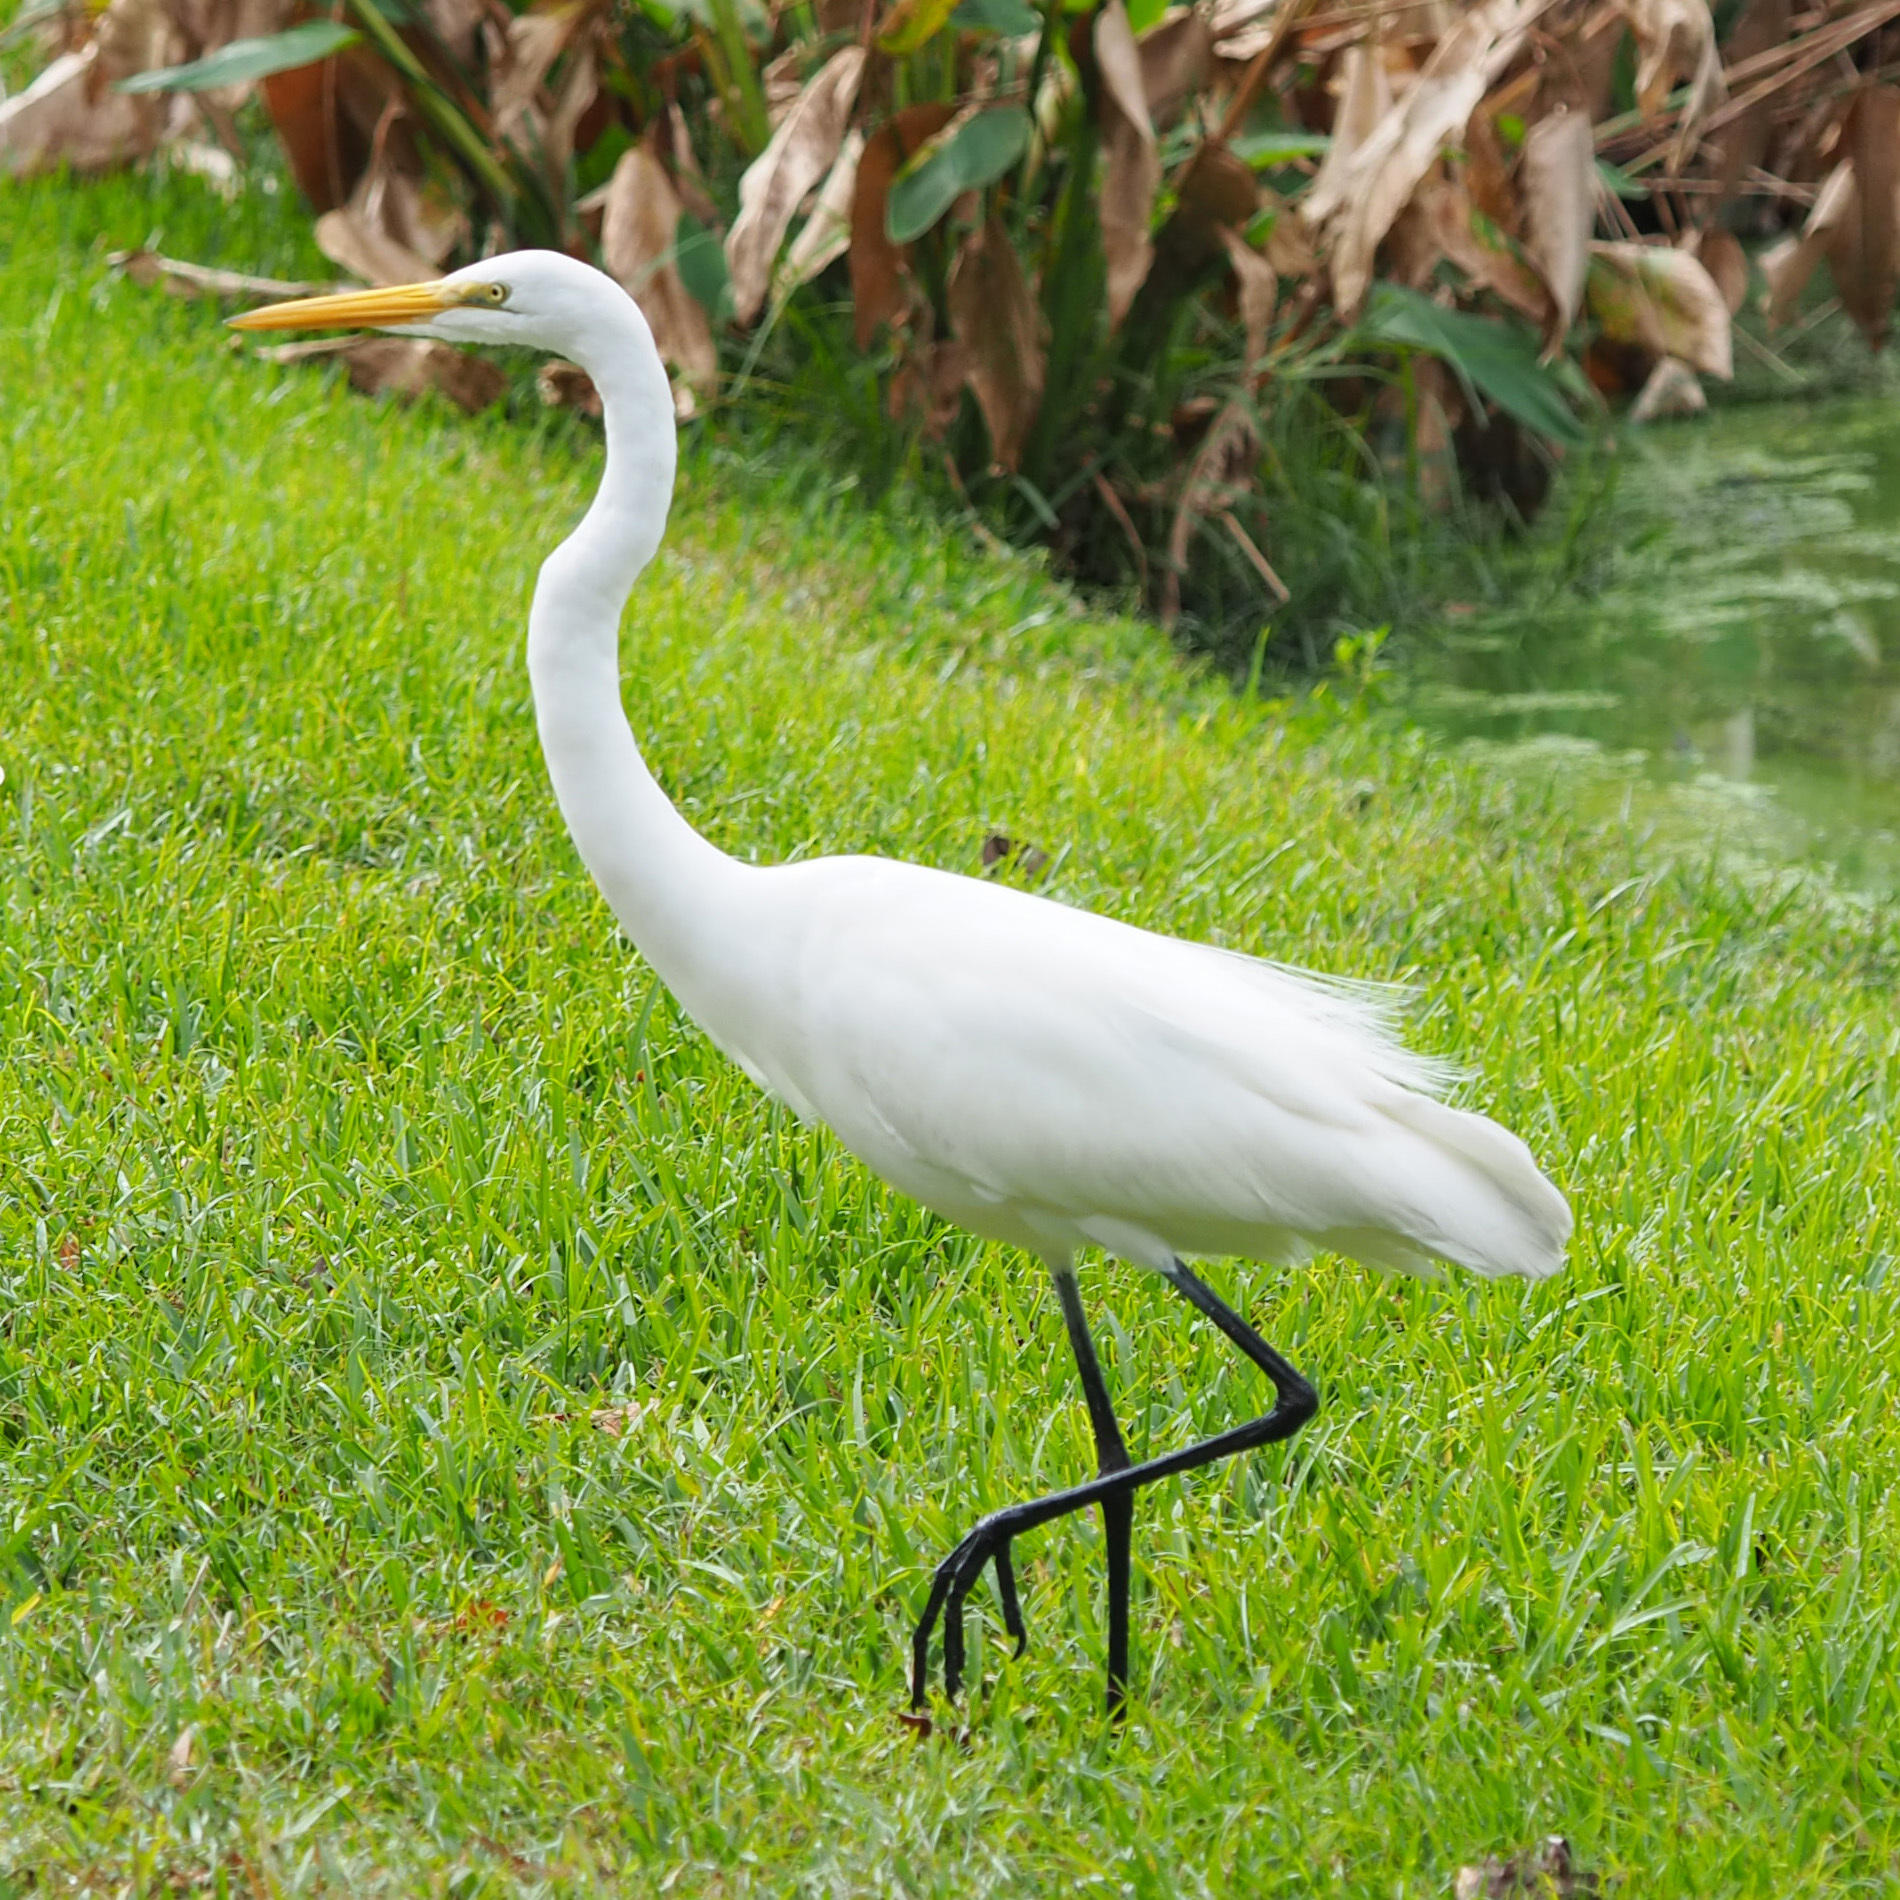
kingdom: Animalia
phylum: Chordata
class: Aves
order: Pelecaniformes
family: Ardeidae
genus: Ardea
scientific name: Ardea alba
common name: Great egret
